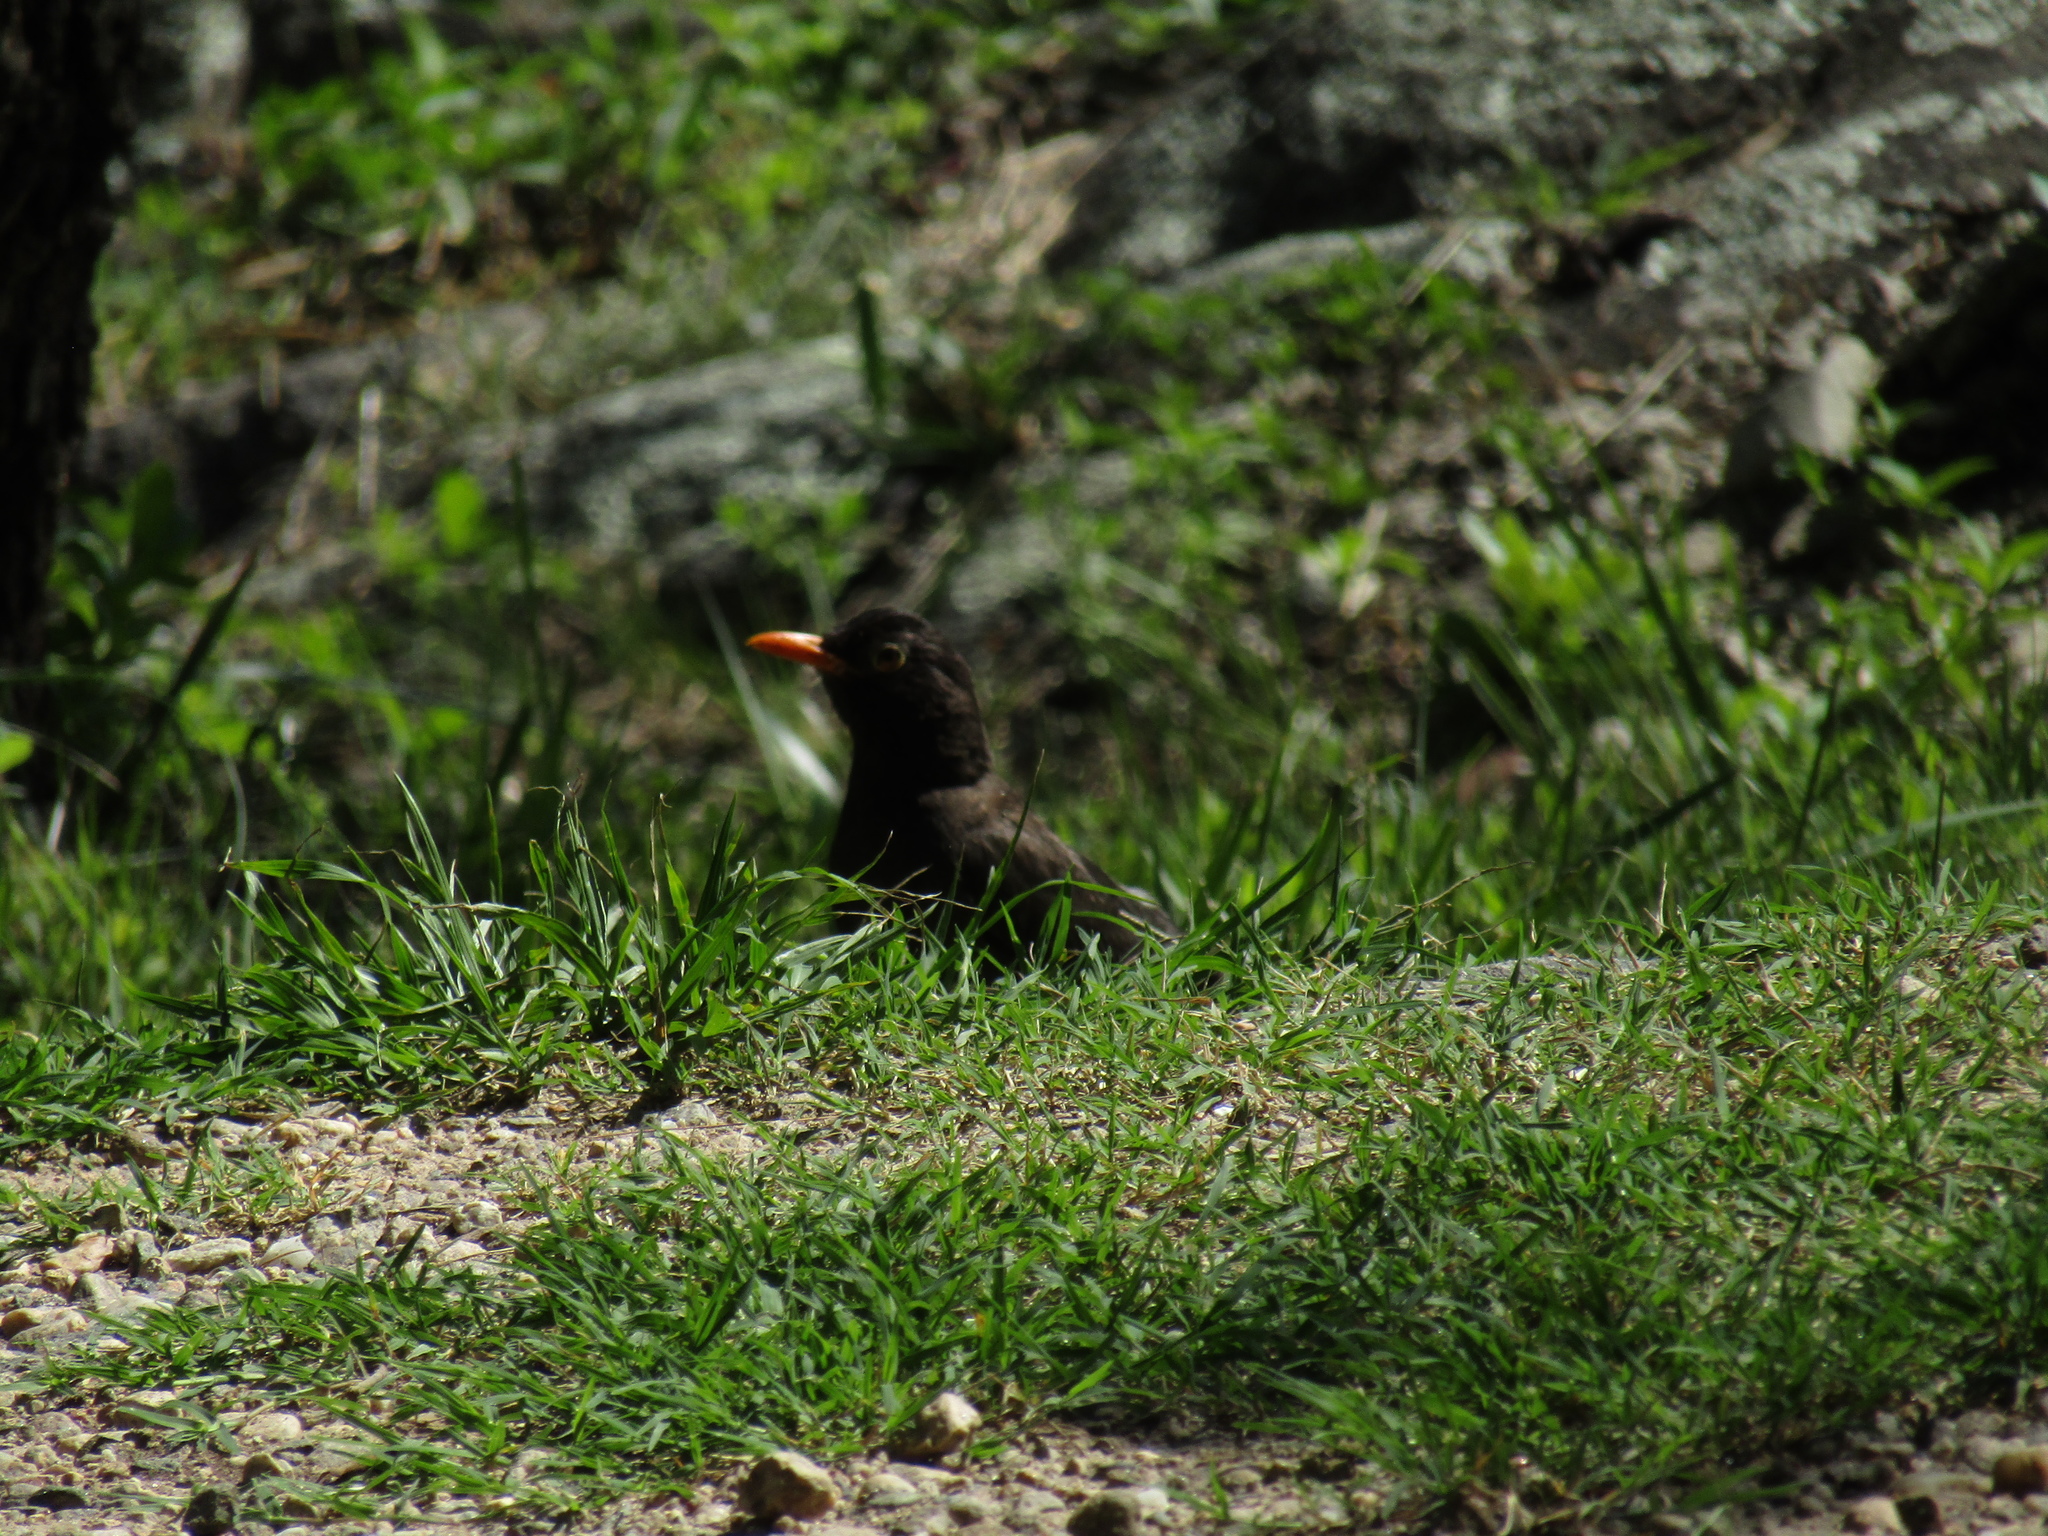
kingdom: Animalia
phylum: Chordata
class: Aves
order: Passeriformes
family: Turdidae
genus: Turdus
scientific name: Turdus chiguanco
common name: Chiguanco thrush
